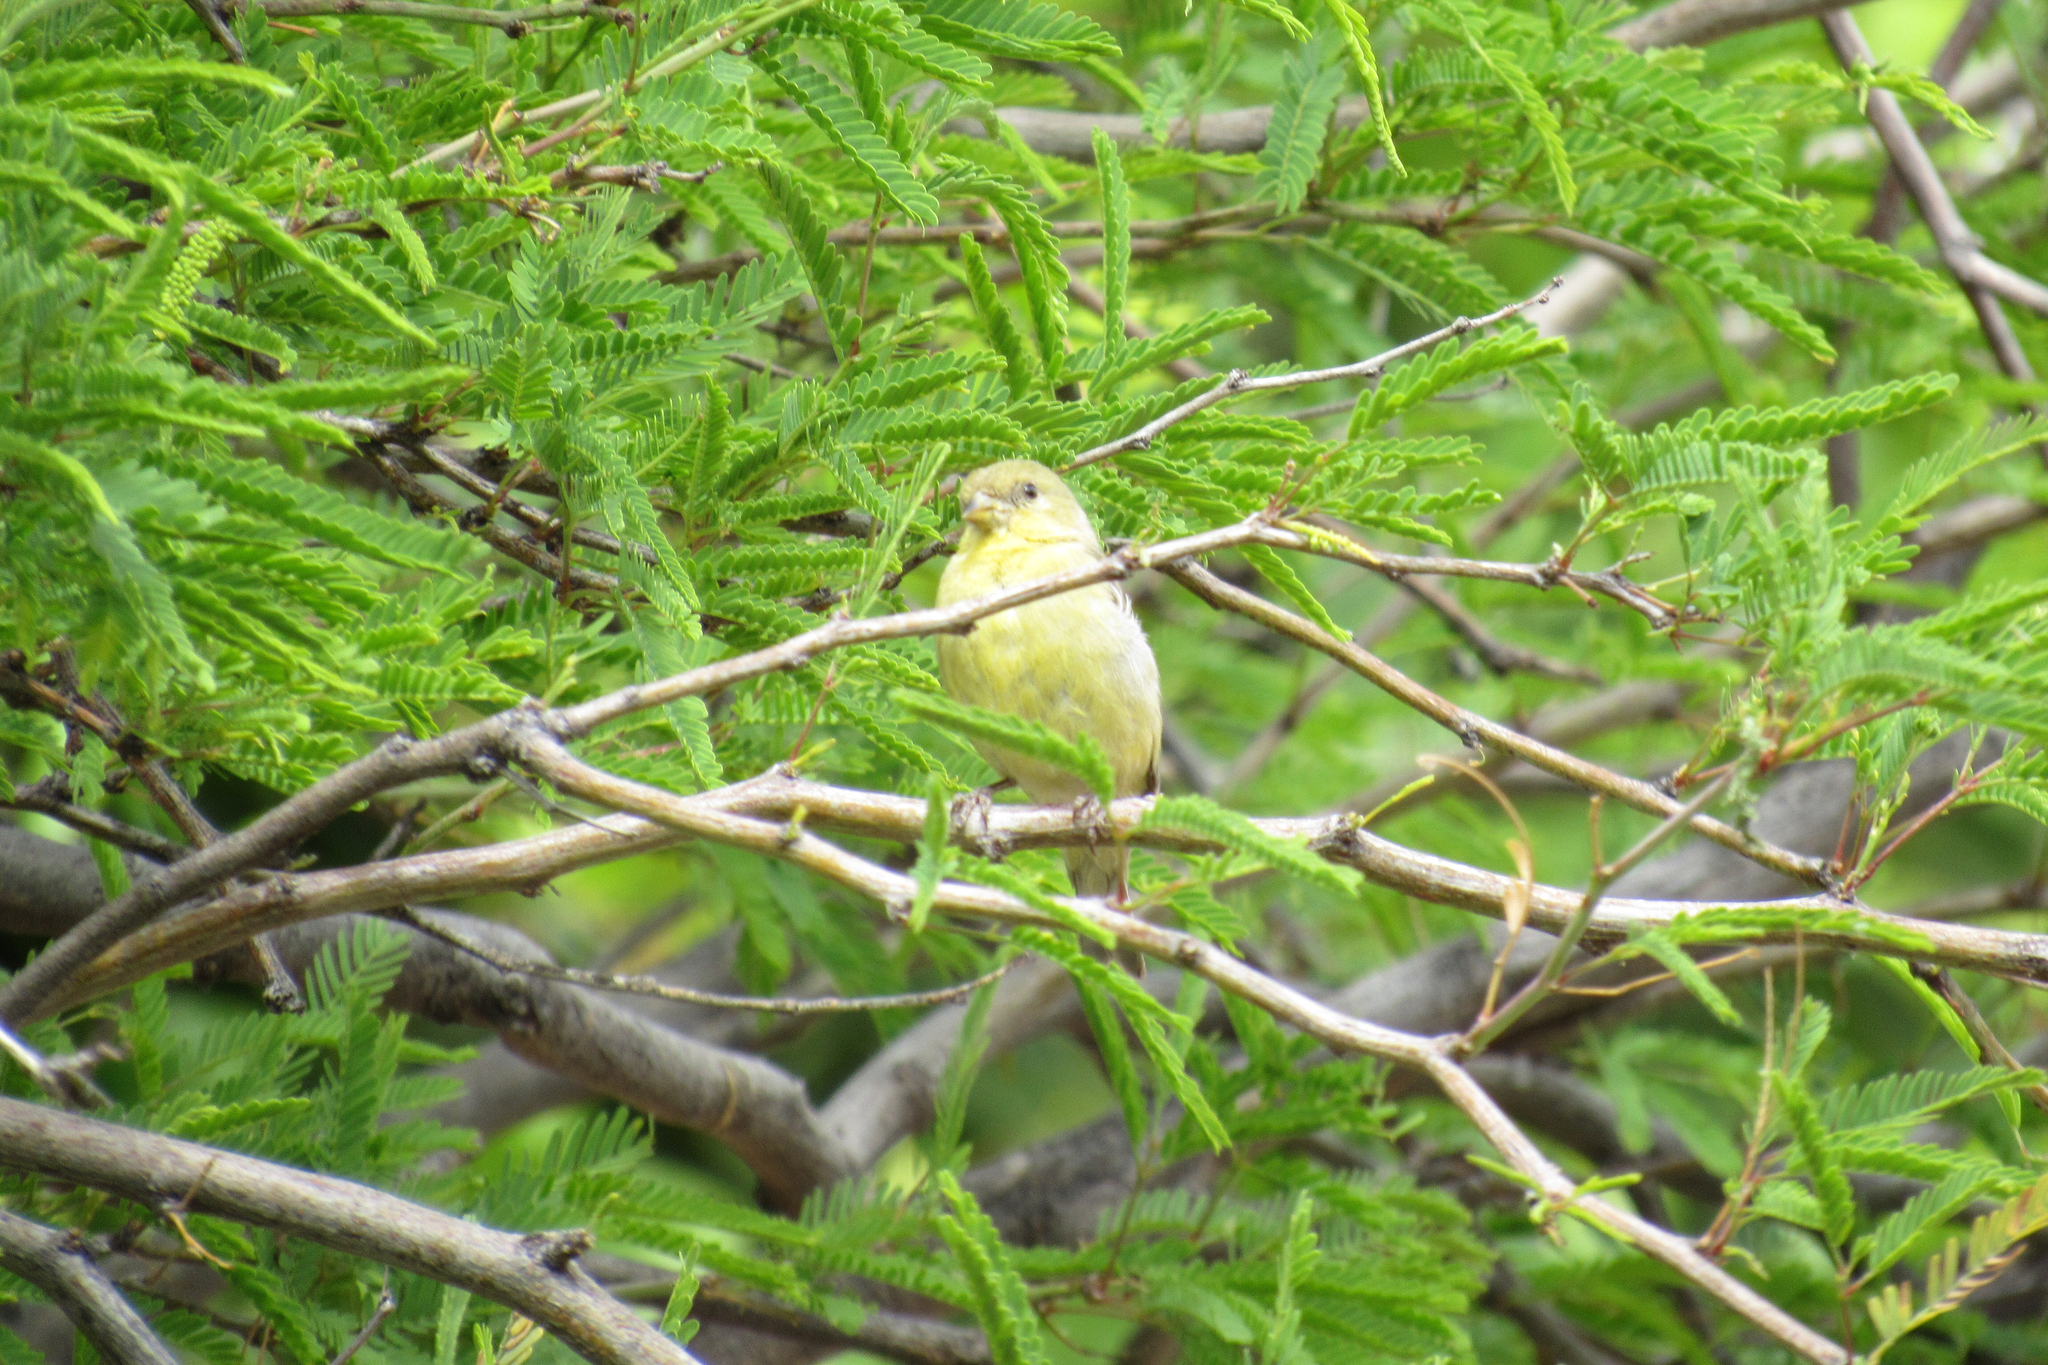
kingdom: Animalia
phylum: Chordata
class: Aves
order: Passeriformes
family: Fringillidae
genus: Spinus
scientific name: Spinus psaltria
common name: Lesser goldfinch
